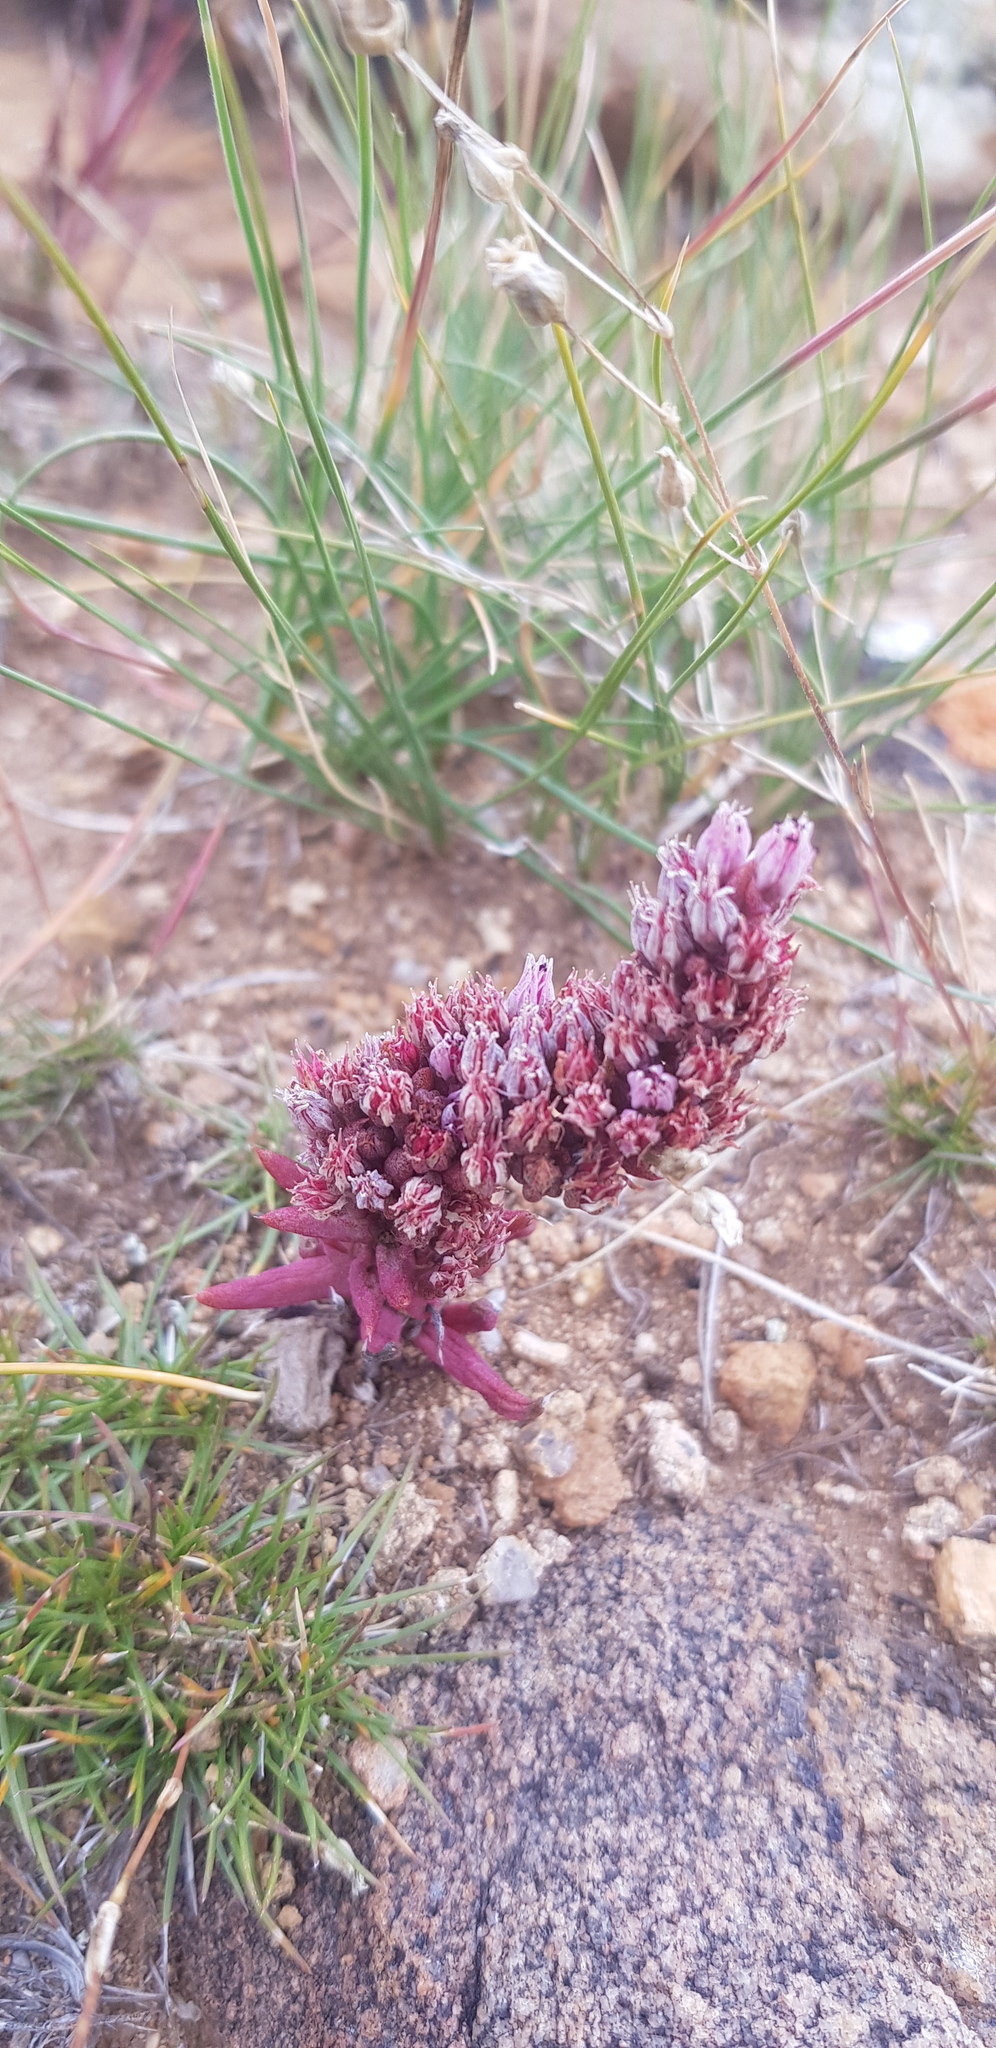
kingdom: Plantae
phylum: Tracheophyta
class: Magnoliopsida
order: Saxifragales
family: Crassulaceae
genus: Orostachys
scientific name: Orostachys fimbriata
